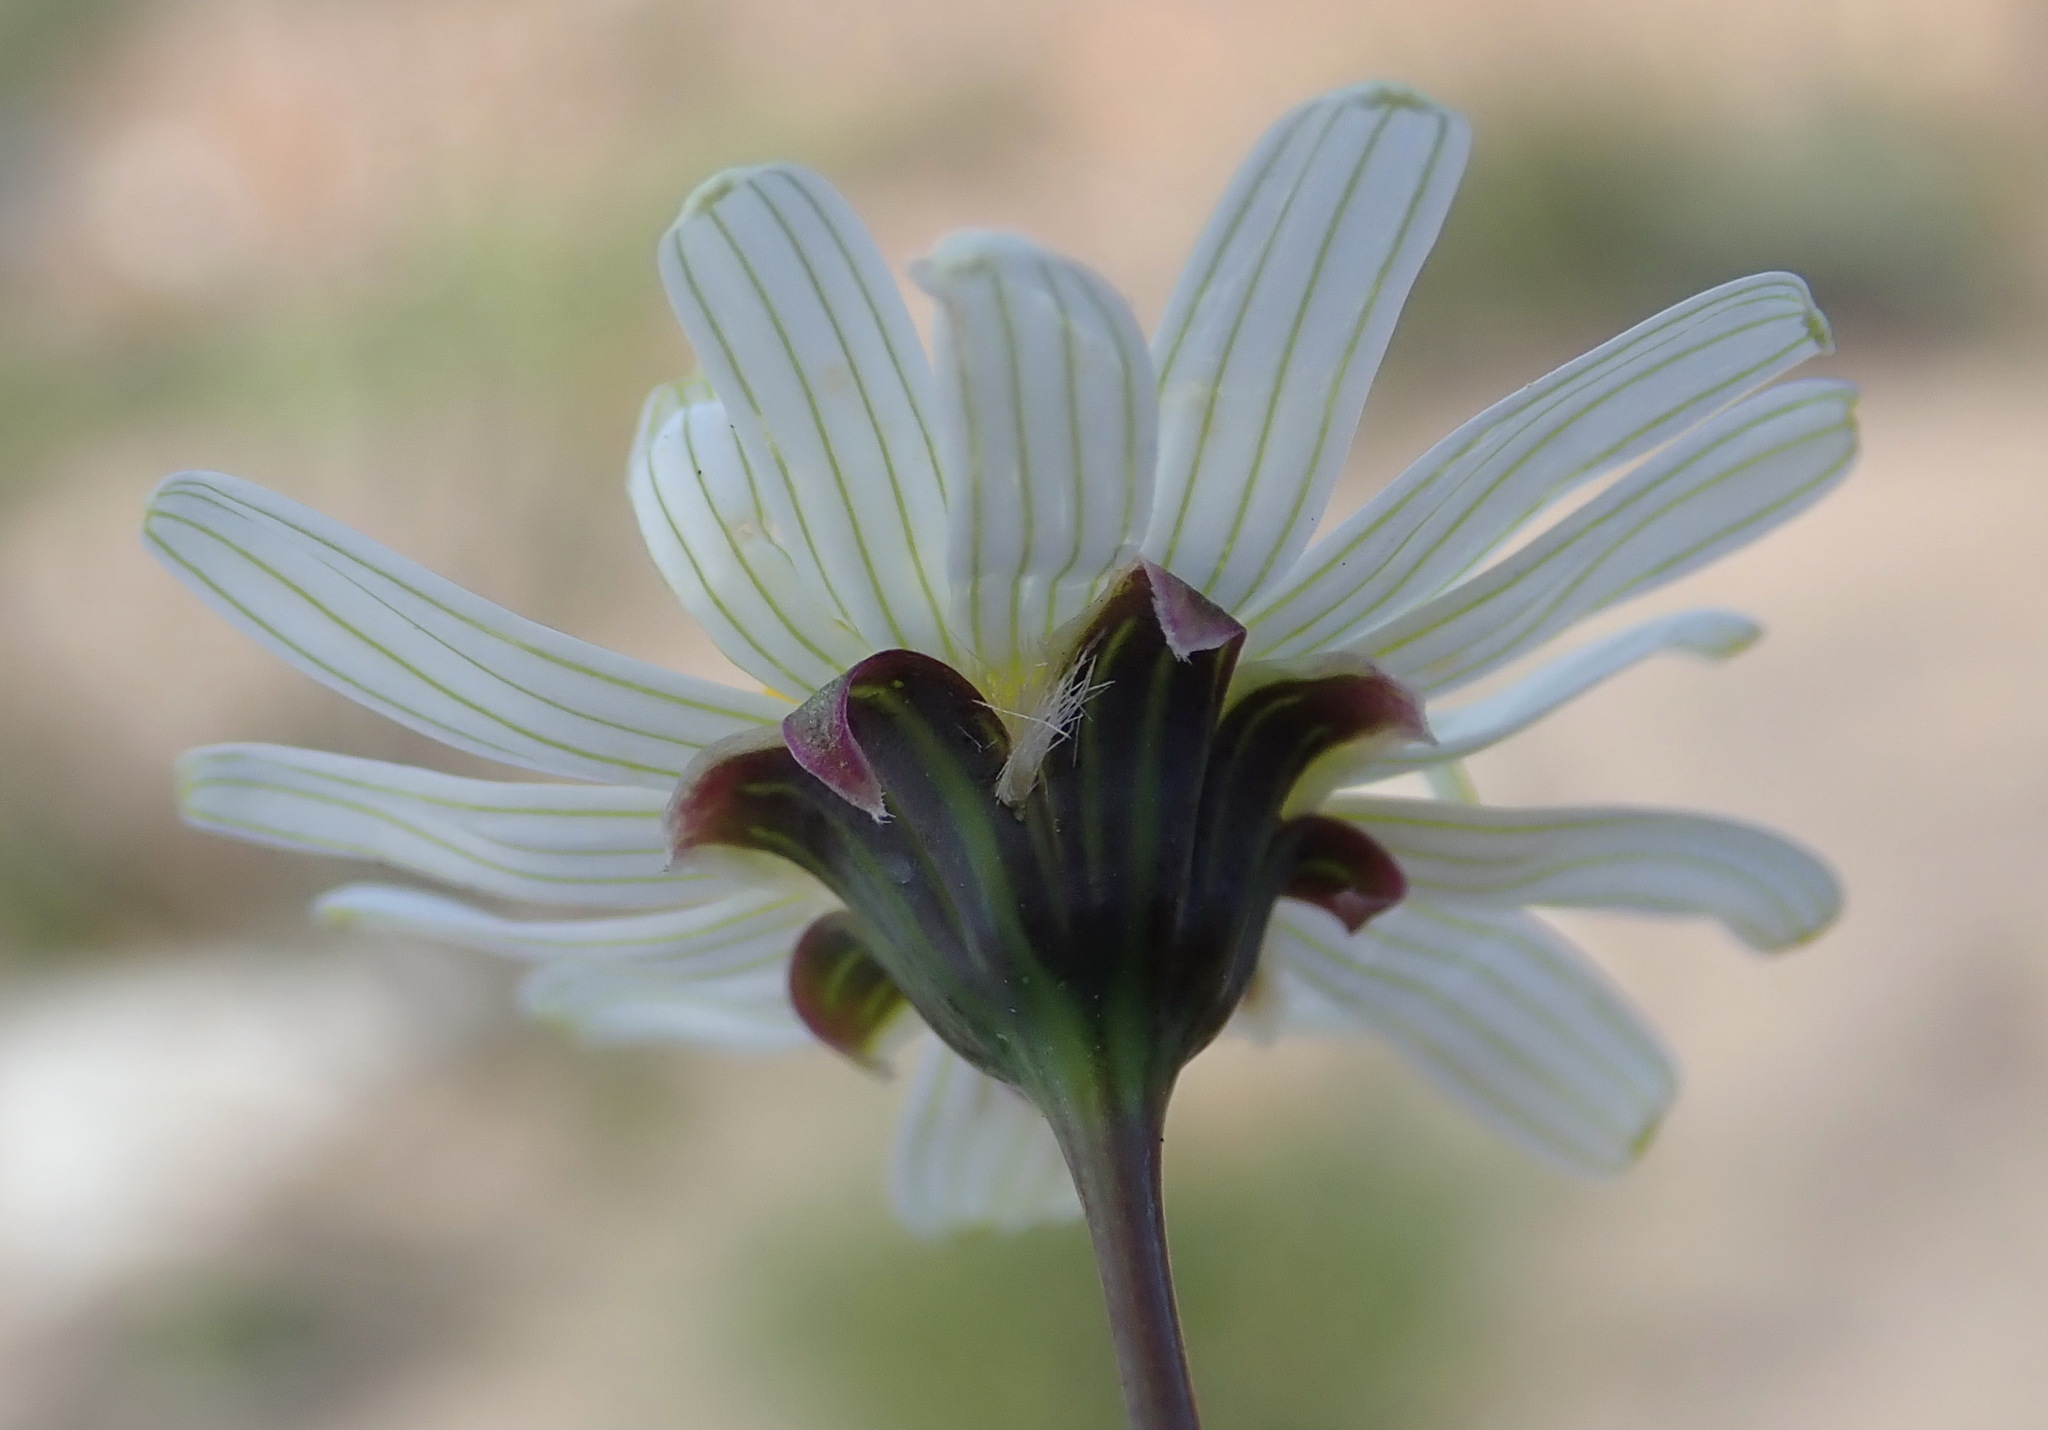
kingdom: Plantae
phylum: Tracheophyta
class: Magnoliopsida
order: Asterales
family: Asteraceae
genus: Crassothonna
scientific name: Crassothonna alba
